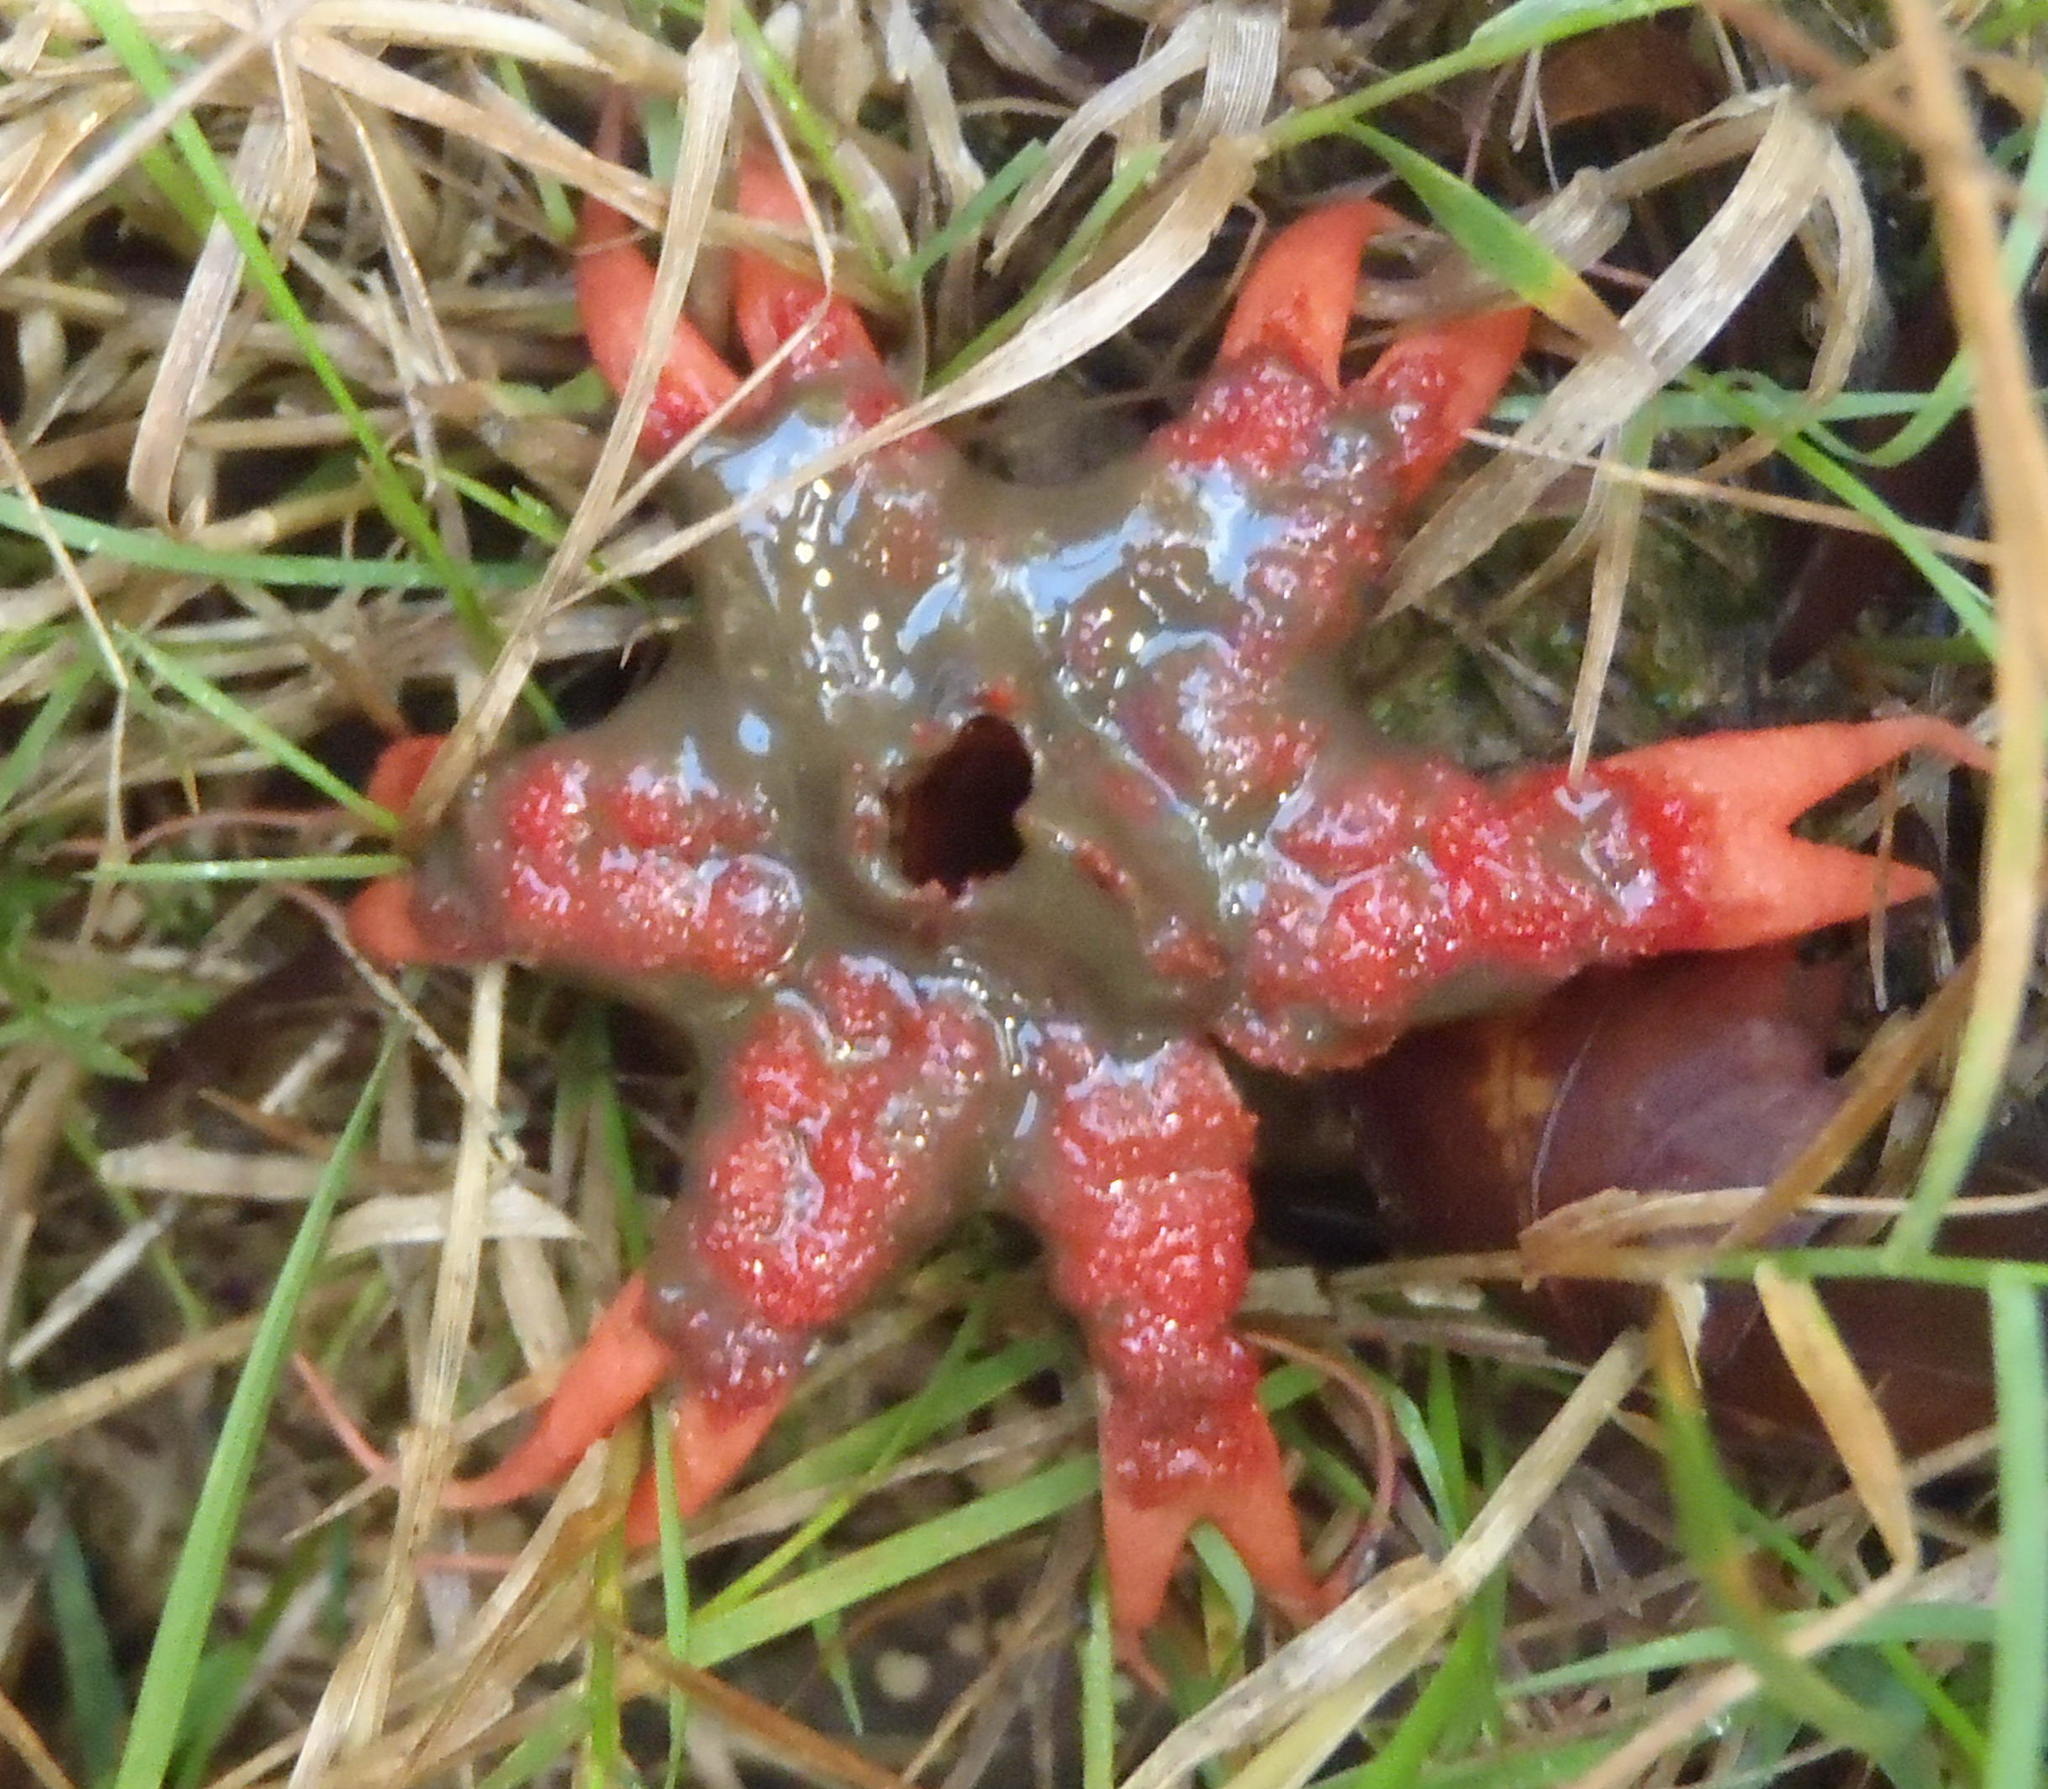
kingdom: Fungi
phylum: Basidiomycota
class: Agaricomycetes
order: Phallales
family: Phallaceae
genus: Aseroe
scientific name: Aseroe rubra
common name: Starfish fungus
